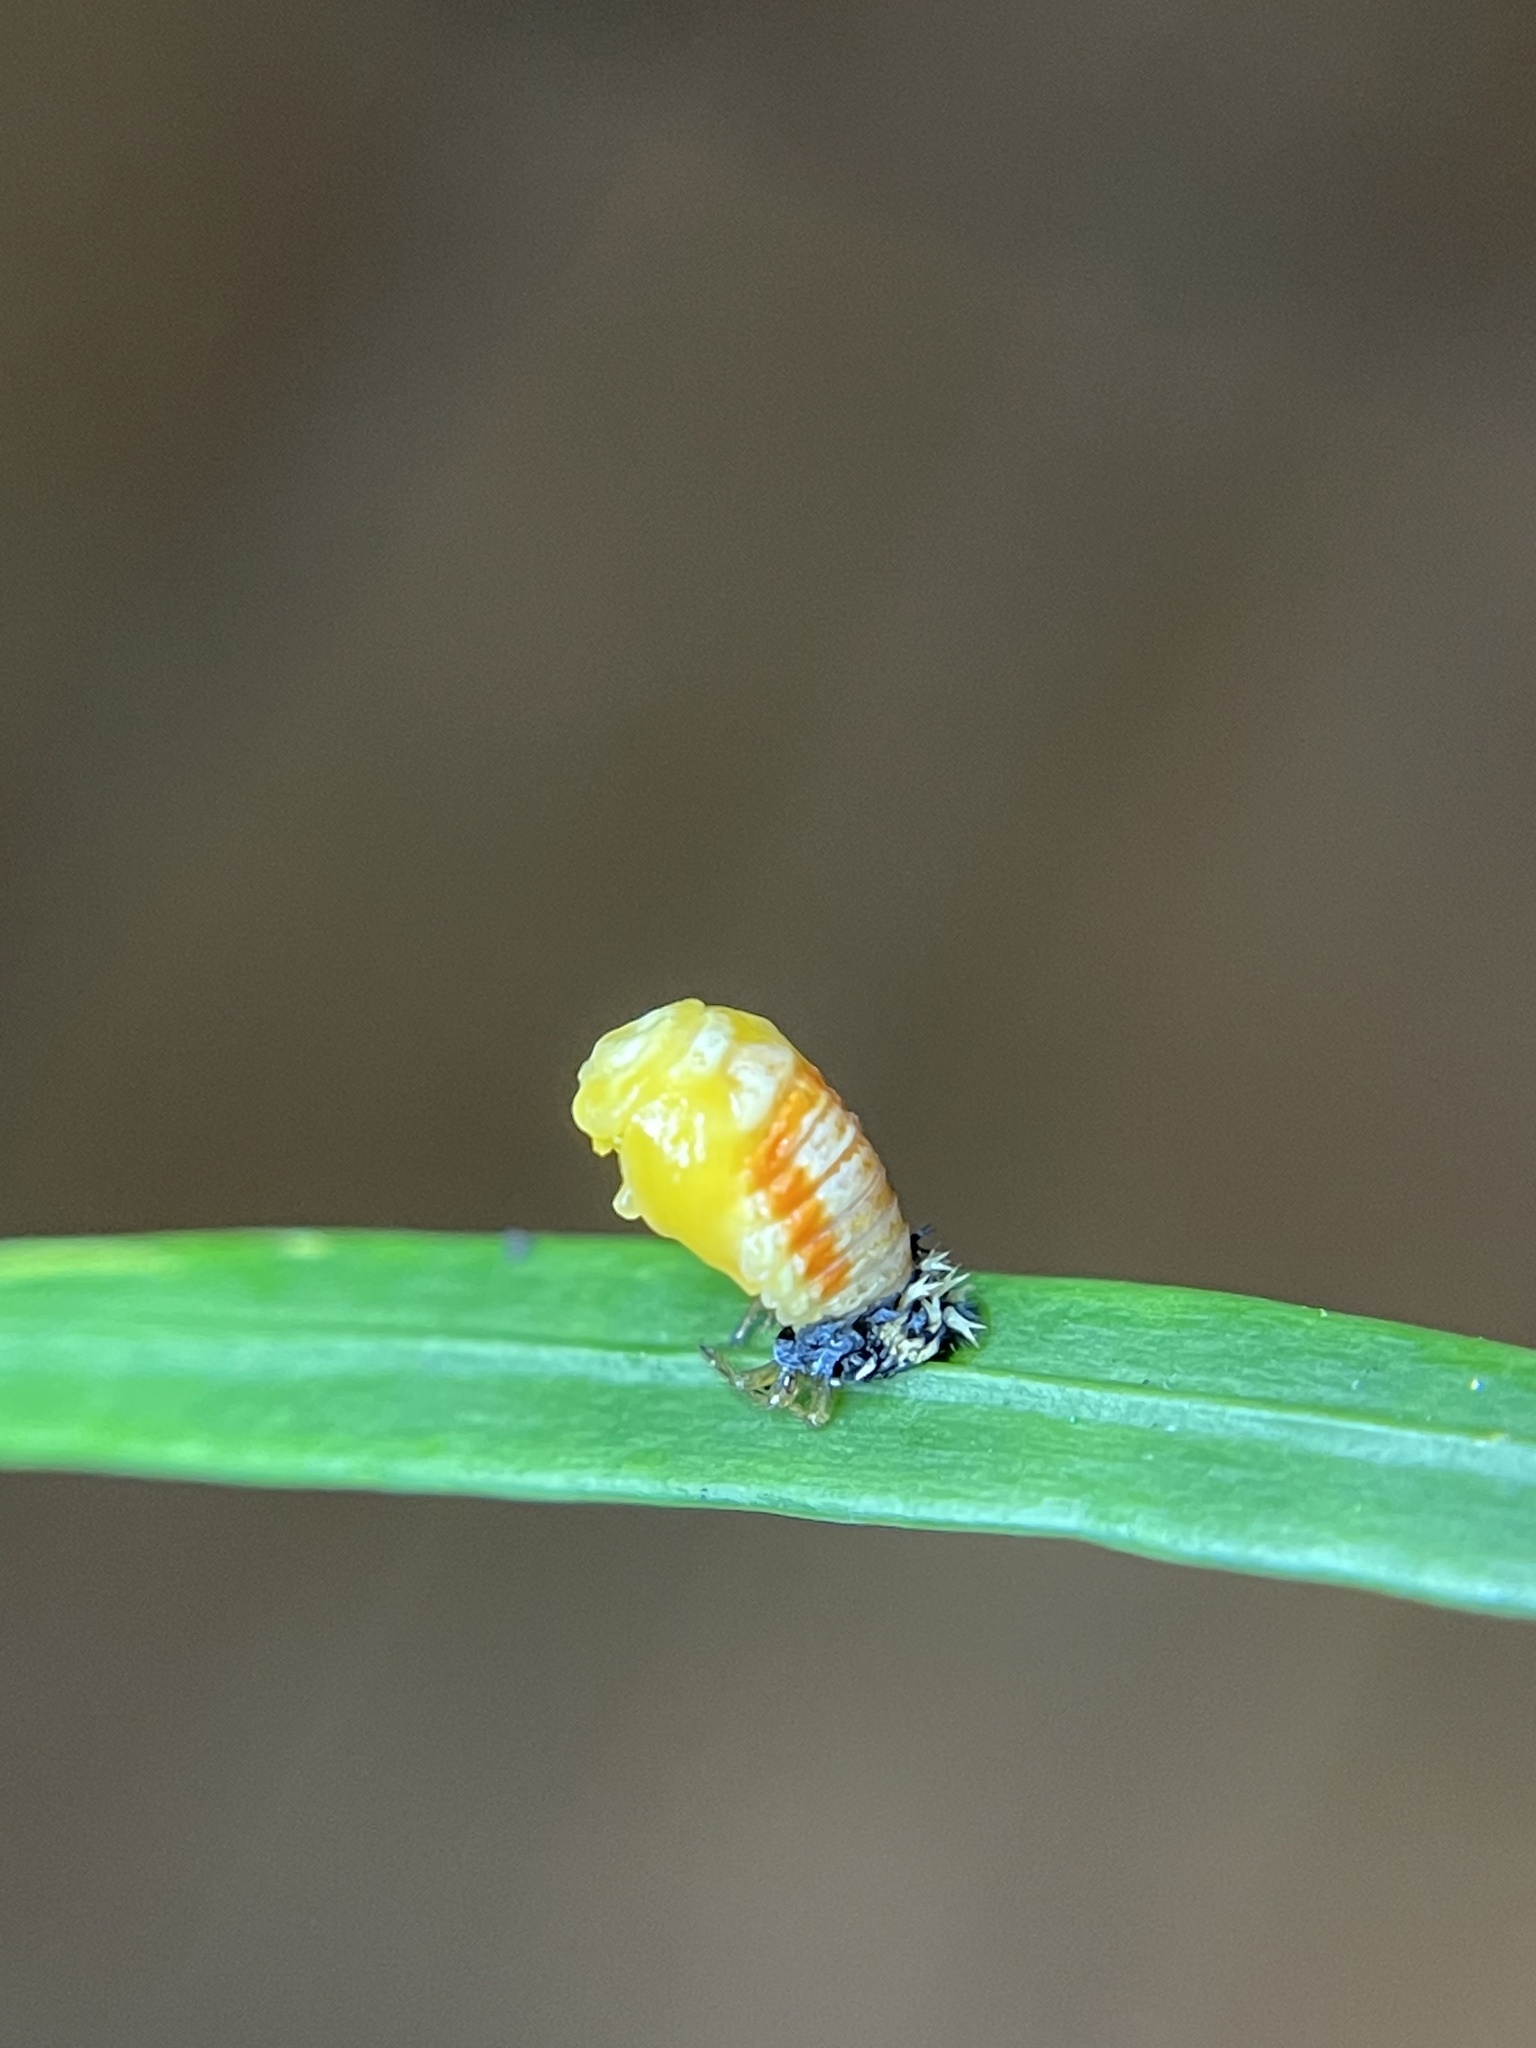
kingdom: Animalia
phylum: Arthropoda
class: Insecta
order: Coleoptera
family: Coccinellidae
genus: Harmonia
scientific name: Harmonia axyridis
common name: Harlequin ladybird
